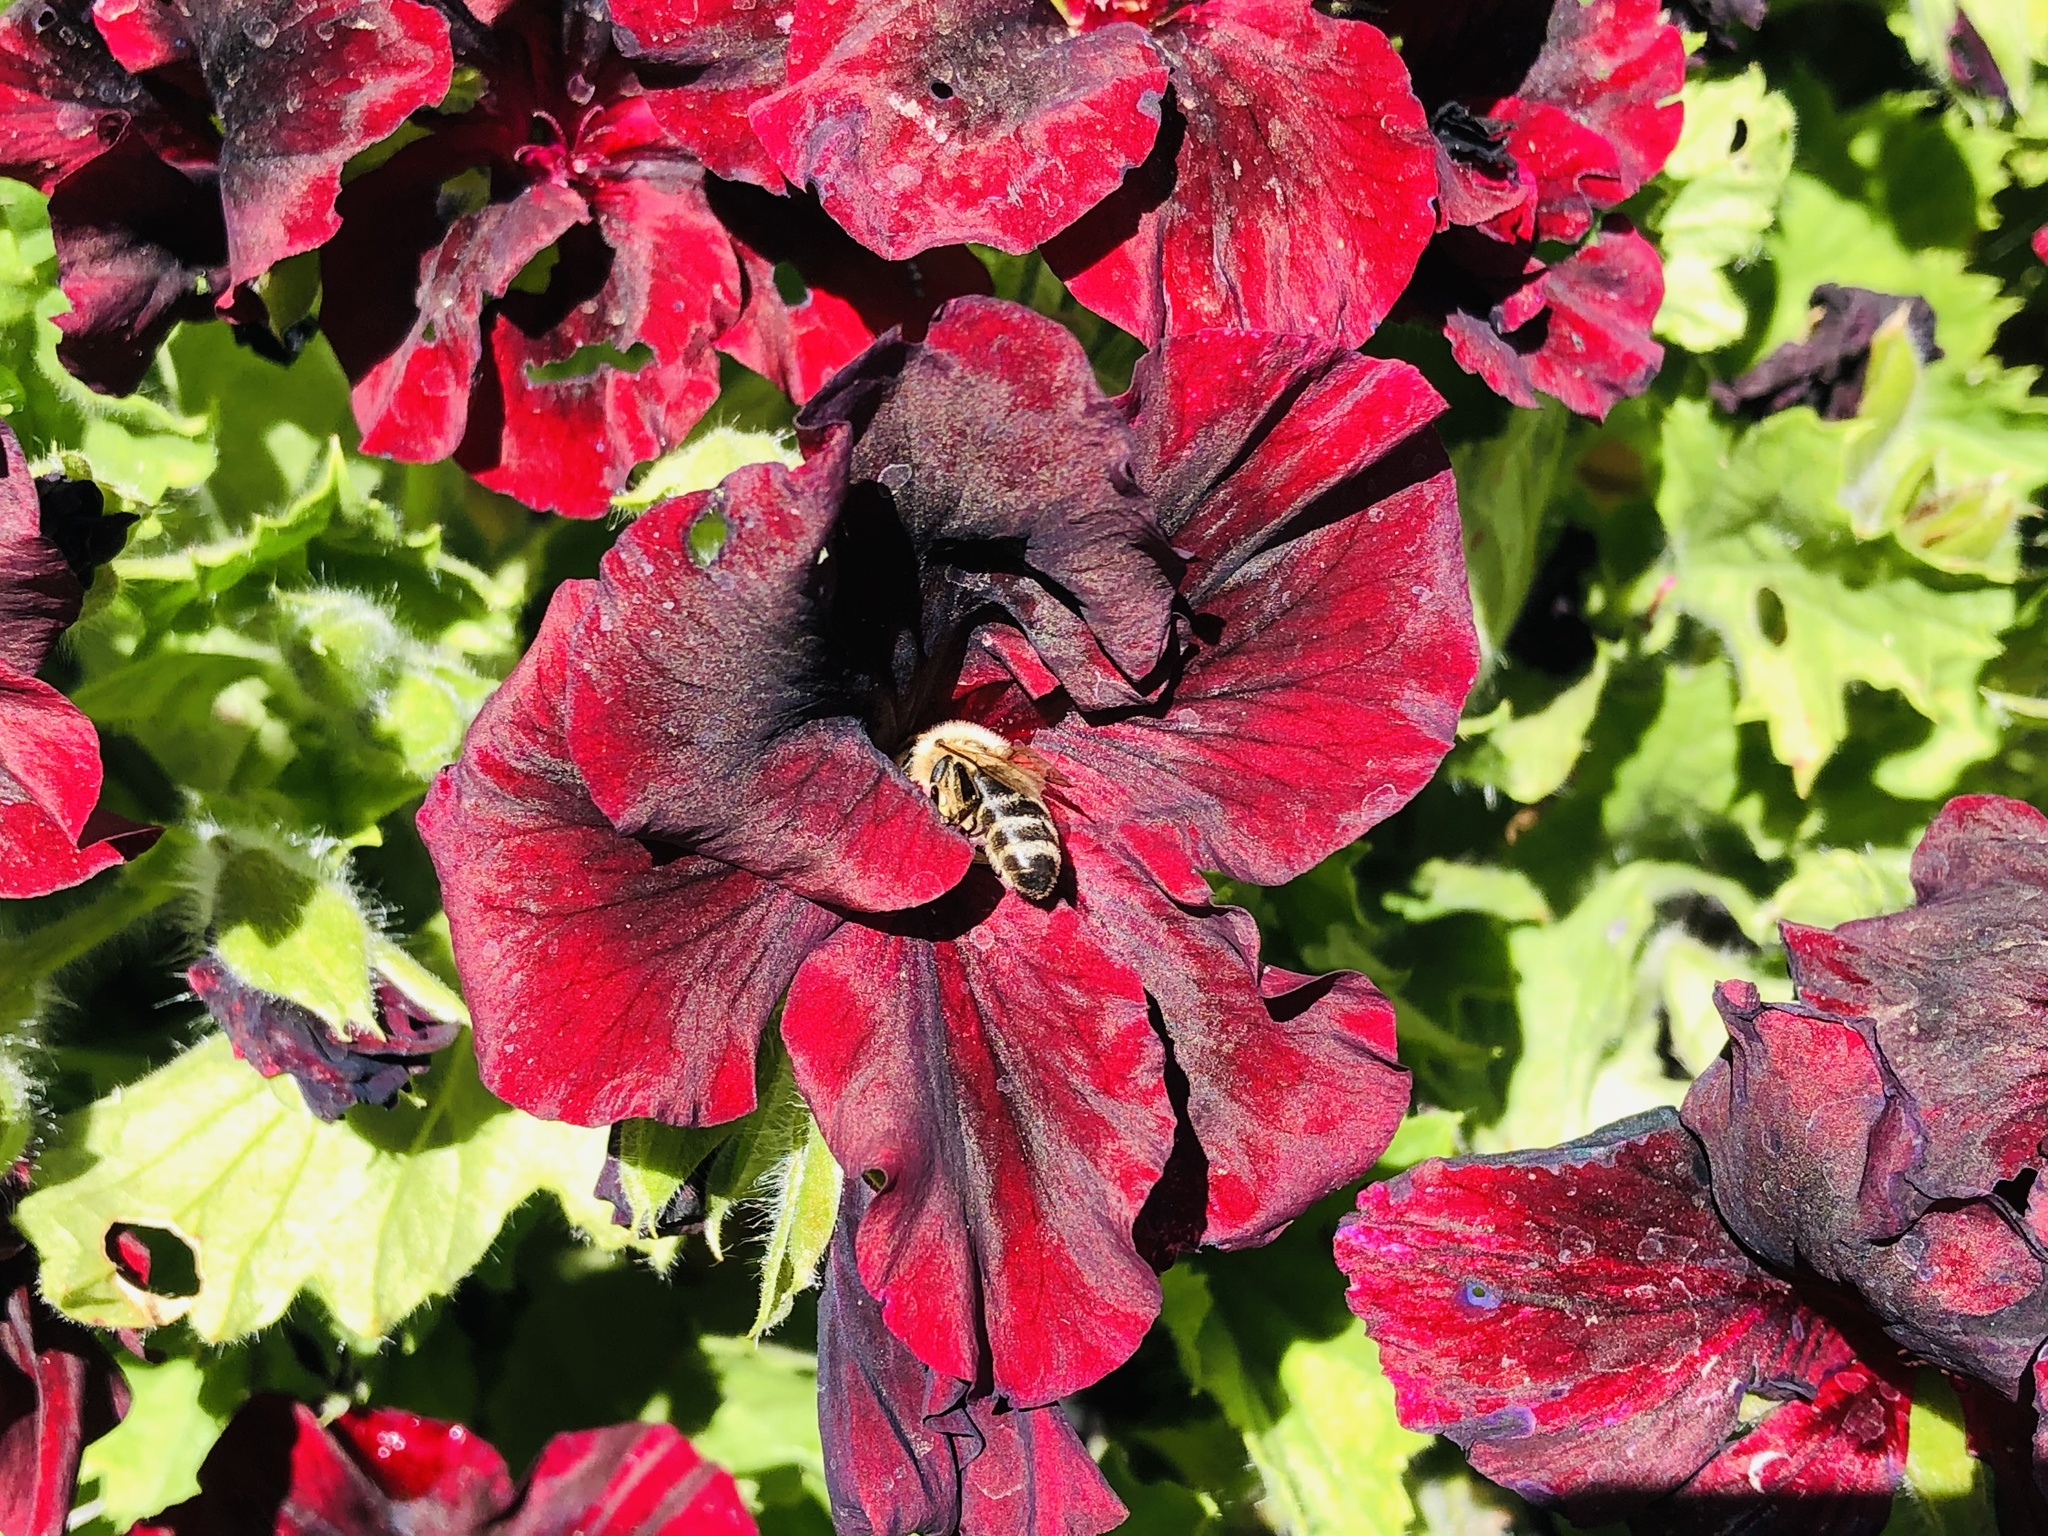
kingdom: Animalia
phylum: Arthropoda
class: Insecta
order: Hymenoptera
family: Apidae
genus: Apis
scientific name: Apis mellifera
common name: Honey bee
